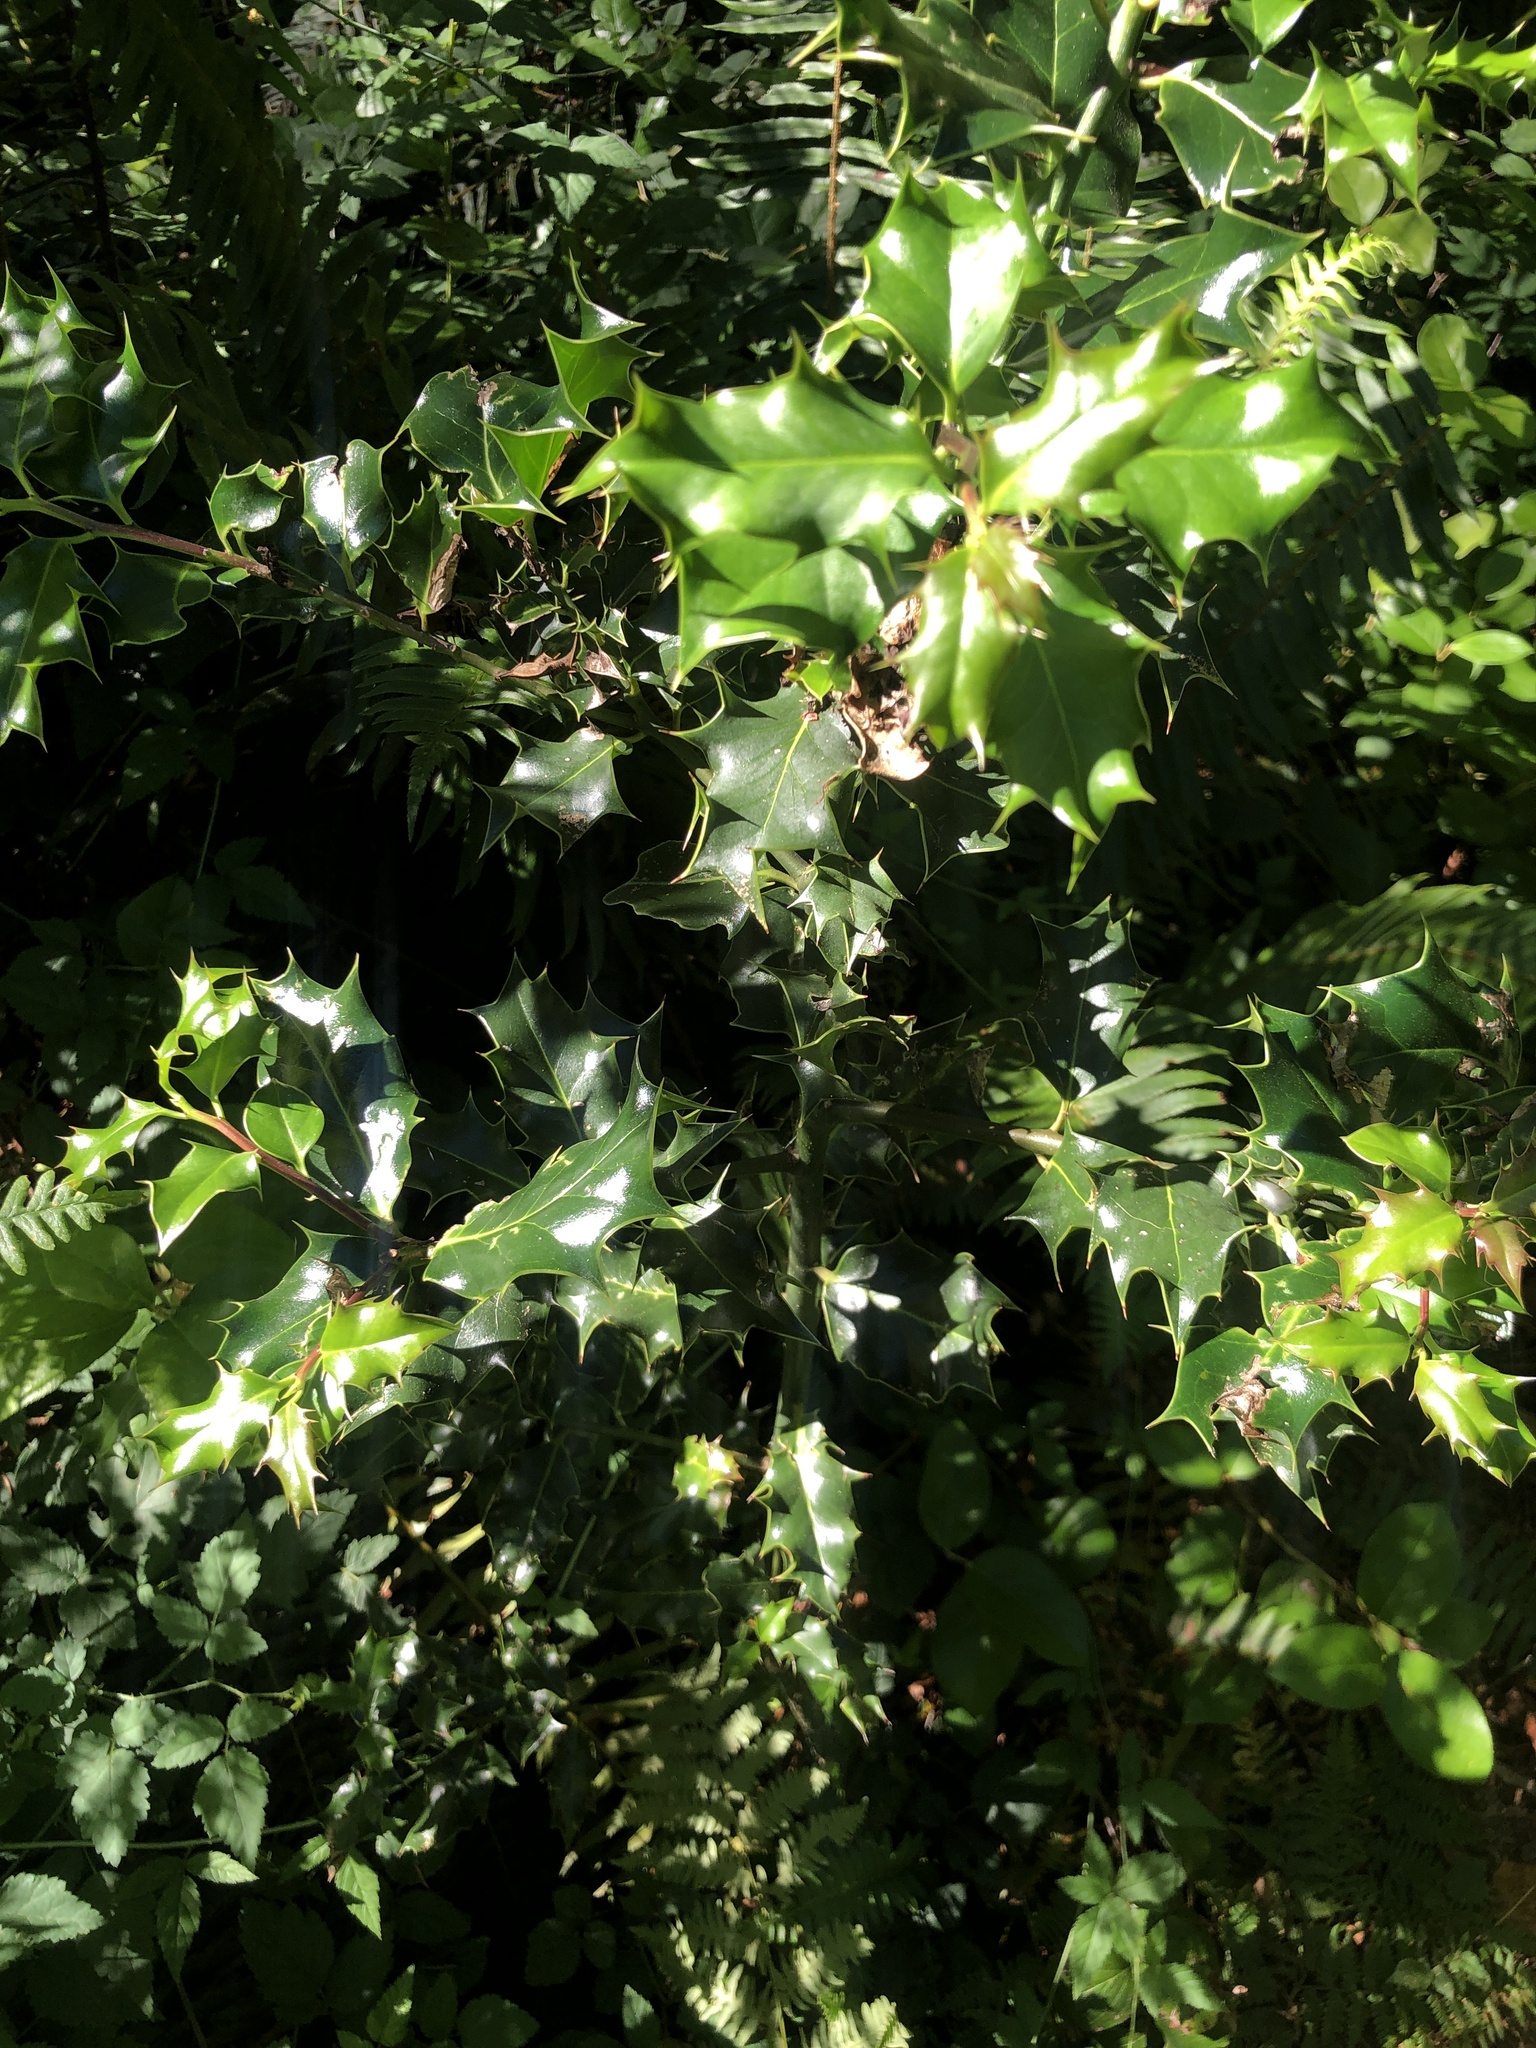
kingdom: Plantae
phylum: Tracheophyta
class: Magnoliopsida
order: Aquifoliales
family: Aquifoliaceae
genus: Ilex
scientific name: Ilex aquifolium
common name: English holly
